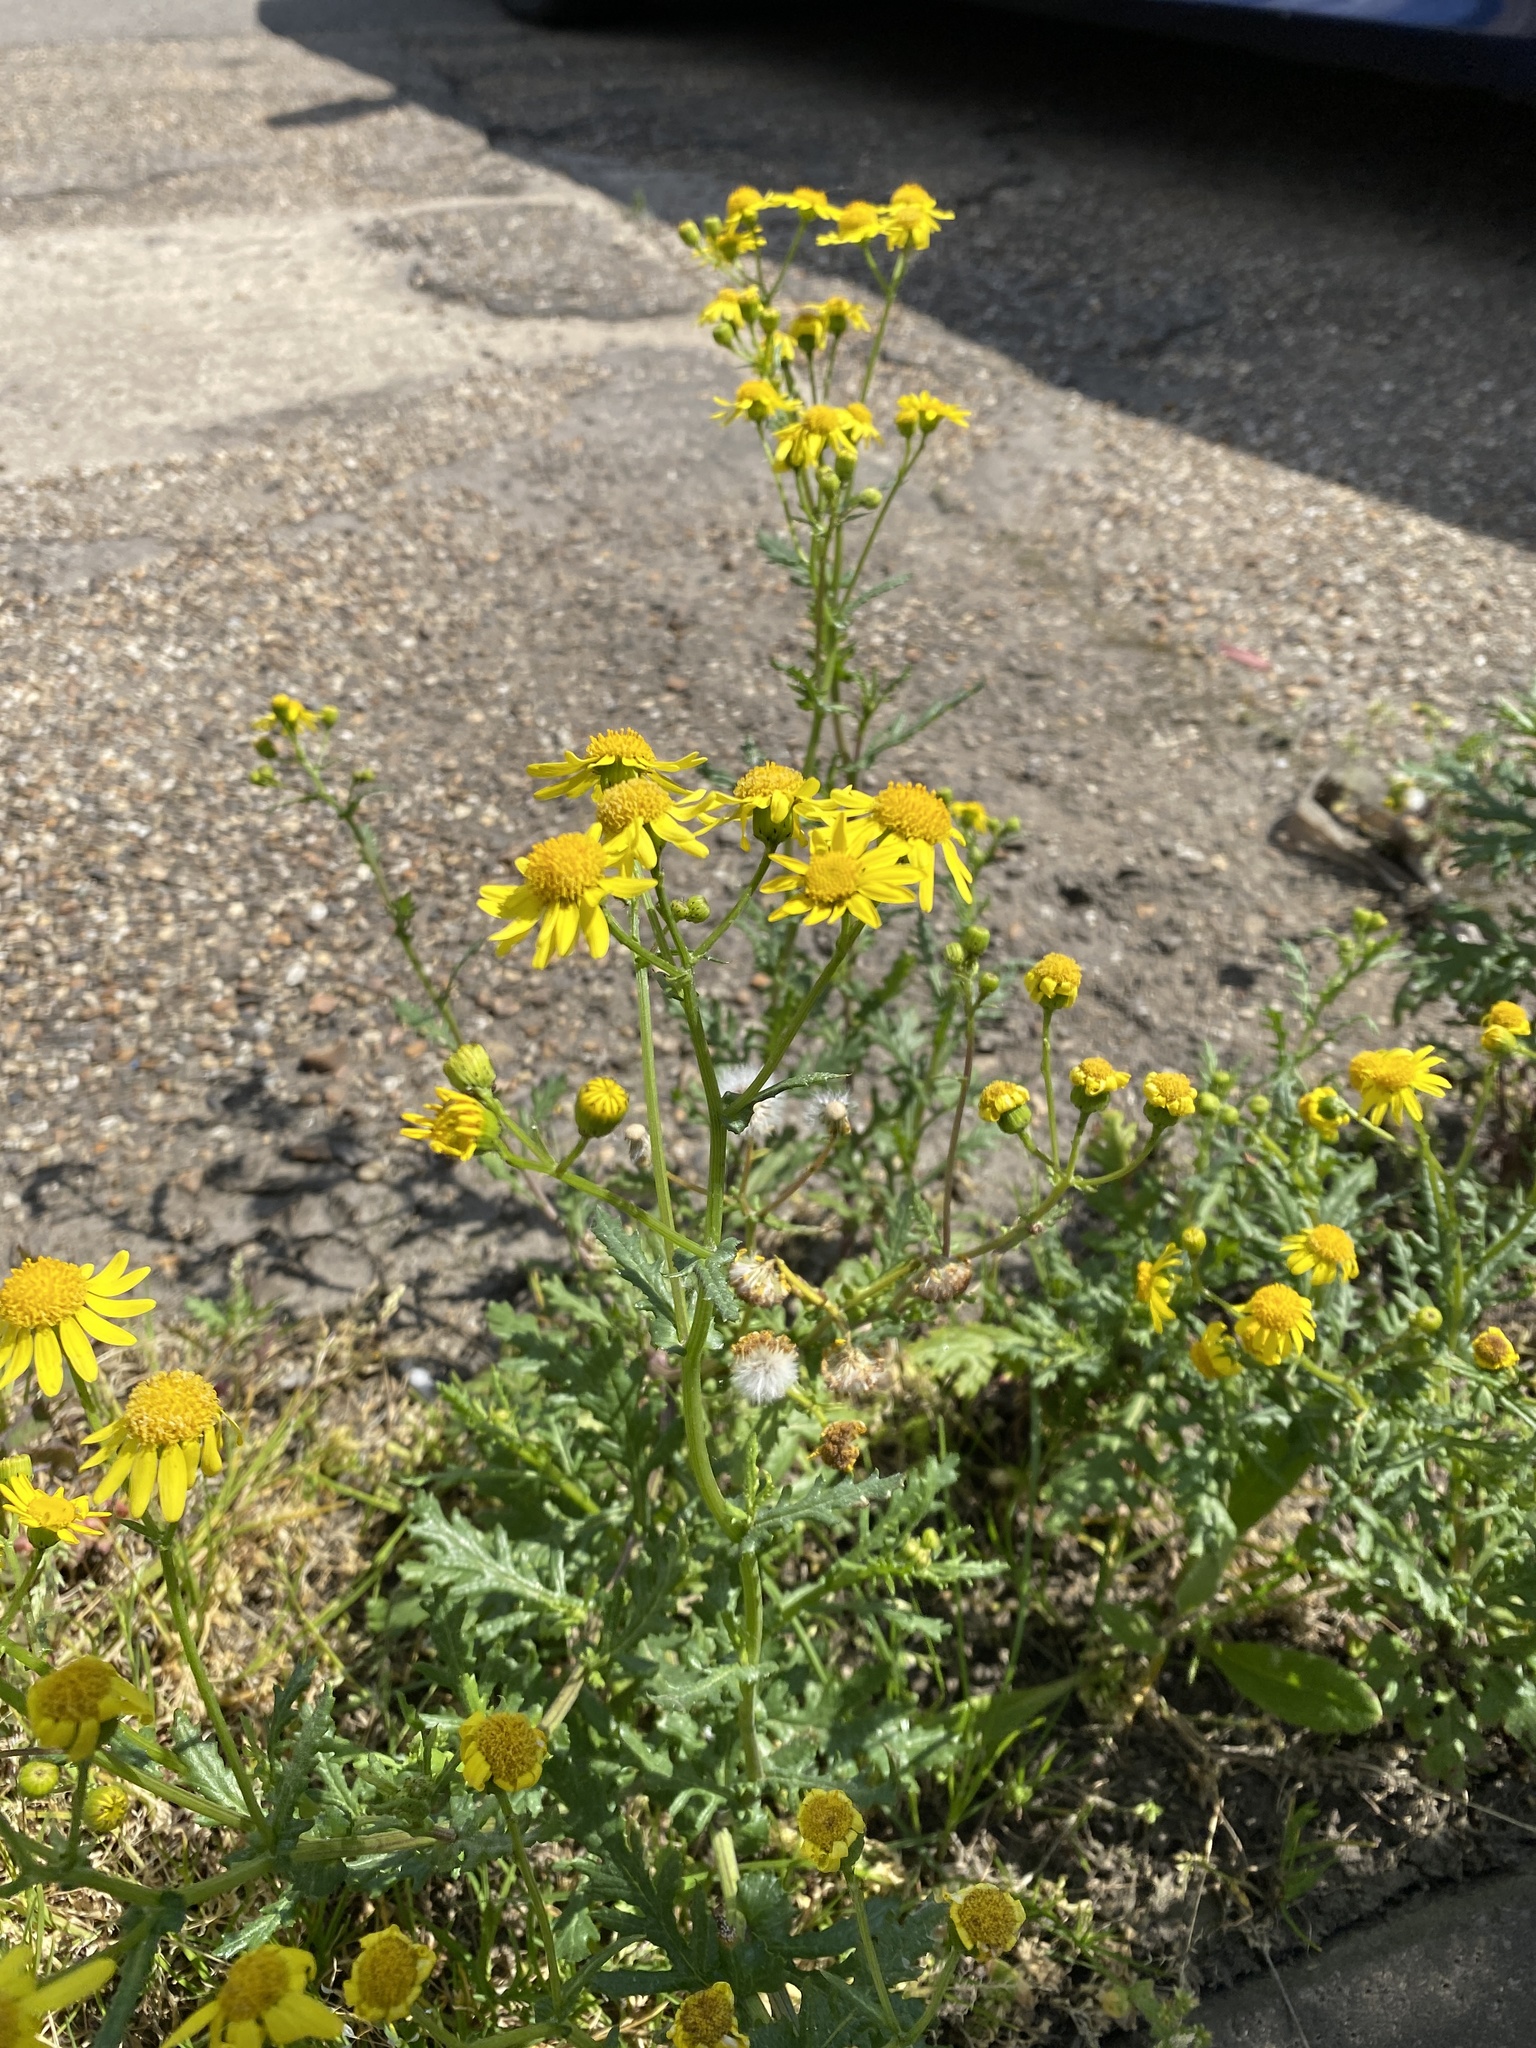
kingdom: Plantae
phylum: Tracheophyta
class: Magnoliopsida
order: Asterales
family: Asteraceae
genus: Senecio
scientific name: Senecio squalidus
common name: Oxford ragwort
